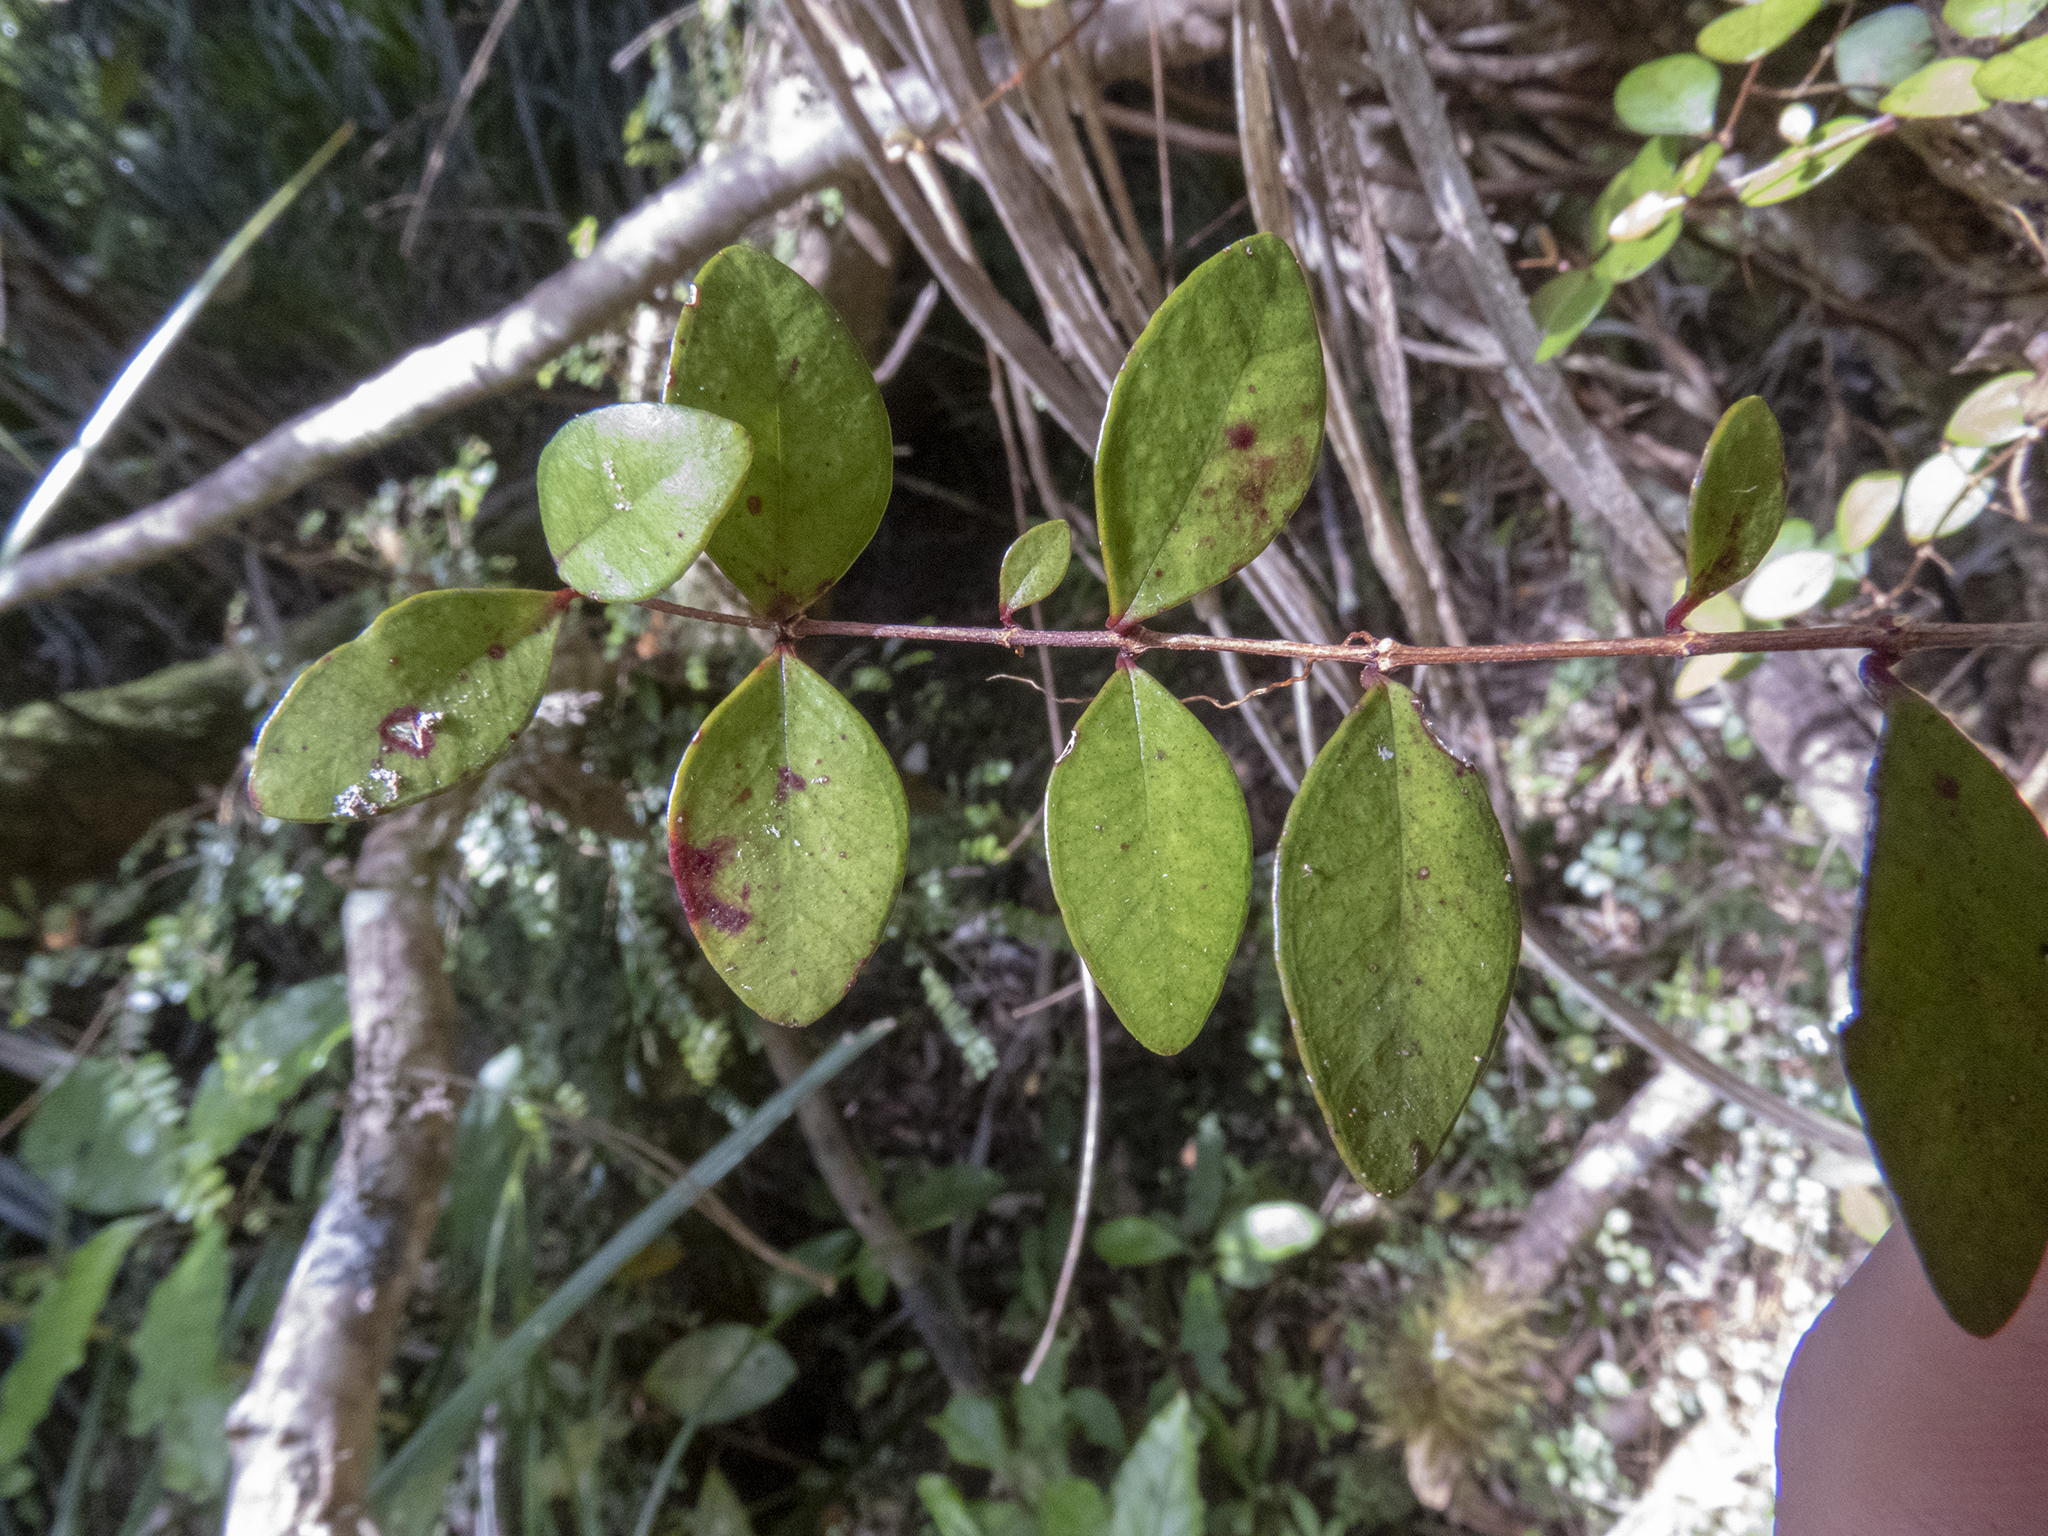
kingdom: Plantae
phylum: Tracheophyta
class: Magnoliopsida
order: Myrtales
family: Myrtaceae
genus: Metrosideros
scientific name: Metrosideros fulgens
